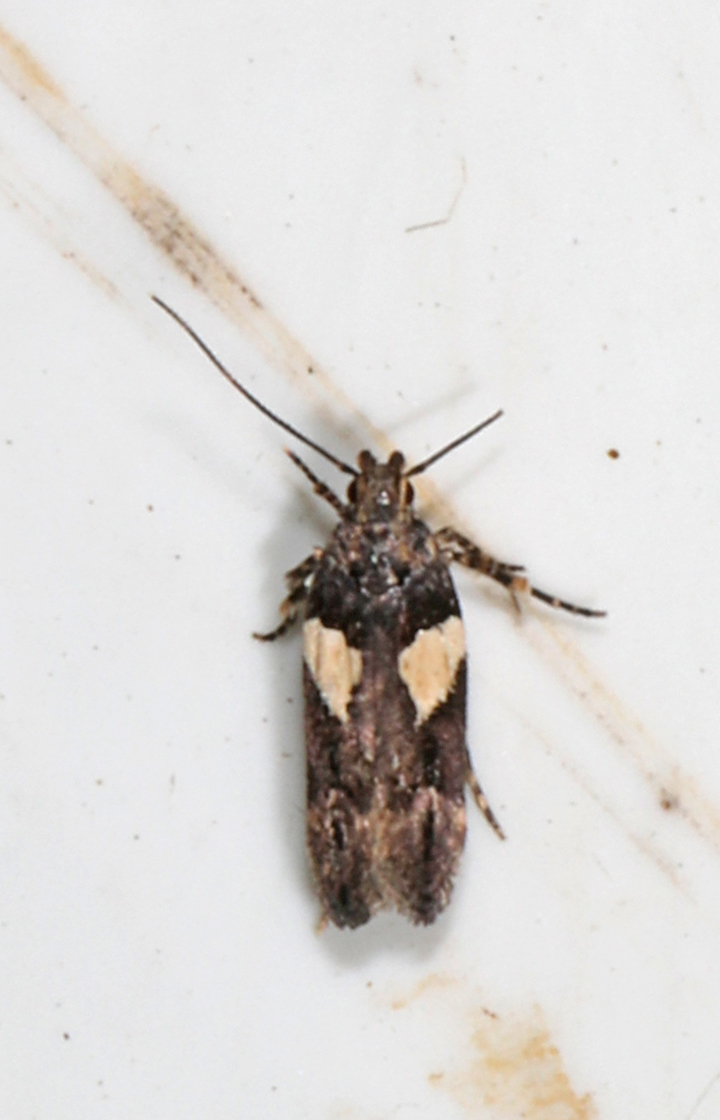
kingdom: Animalia
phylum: Arthropoda
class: Insecta
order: Lepidoptera
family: Gelechiidae
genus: Friseria
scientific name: Friseria acaciella
